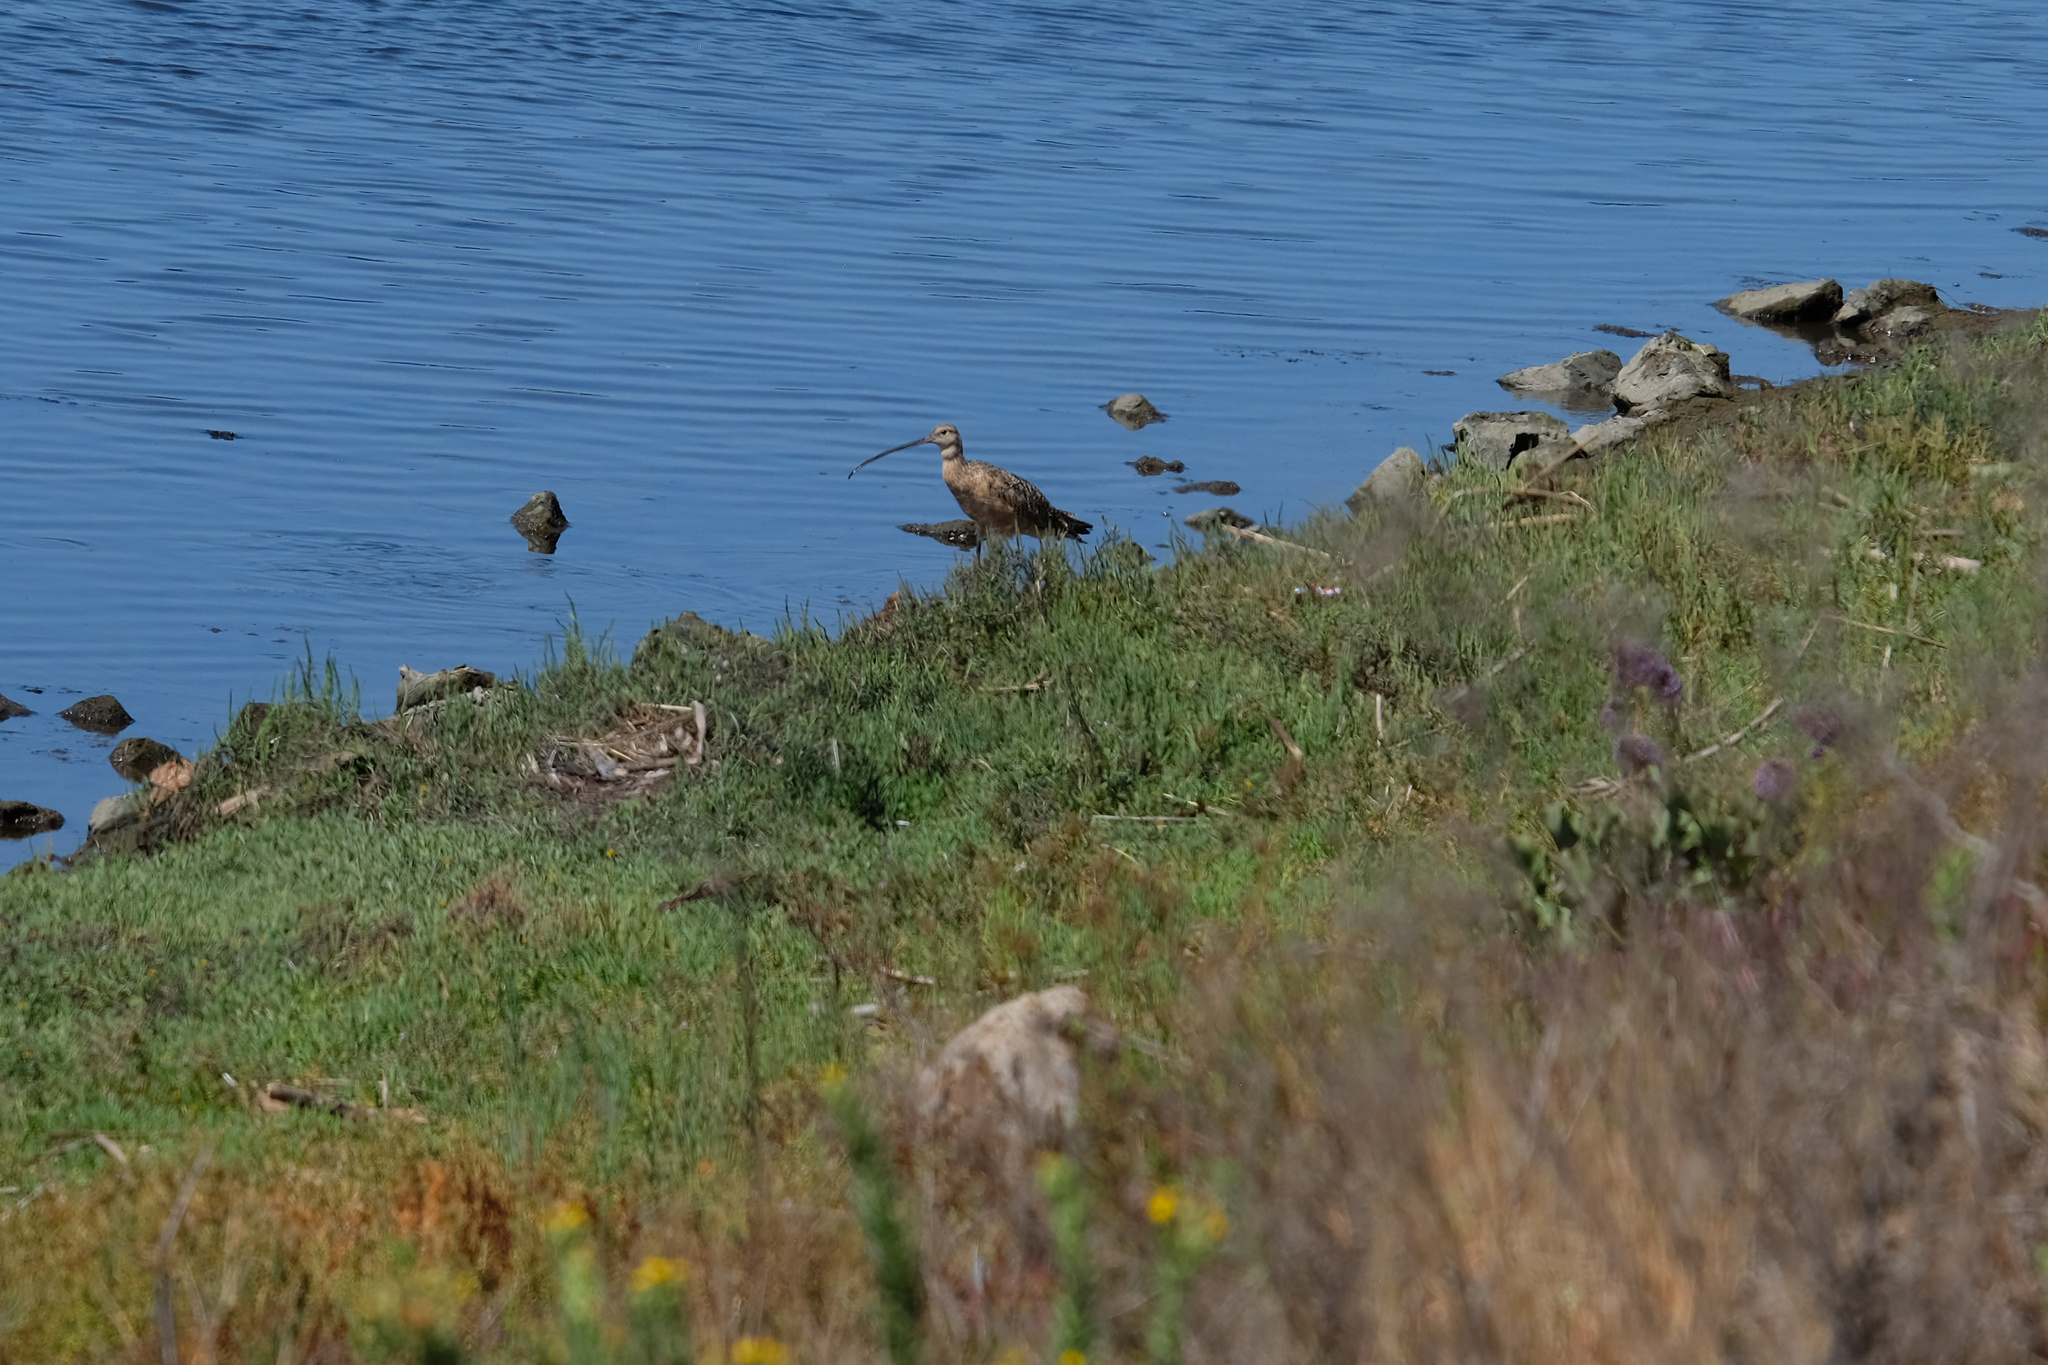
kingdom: Animalia
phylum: Chordata
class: Aves
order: Charadriiformes
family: Scolopacidae
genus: Numenius
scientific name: Numenius americanus
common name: Long-billed curlew
